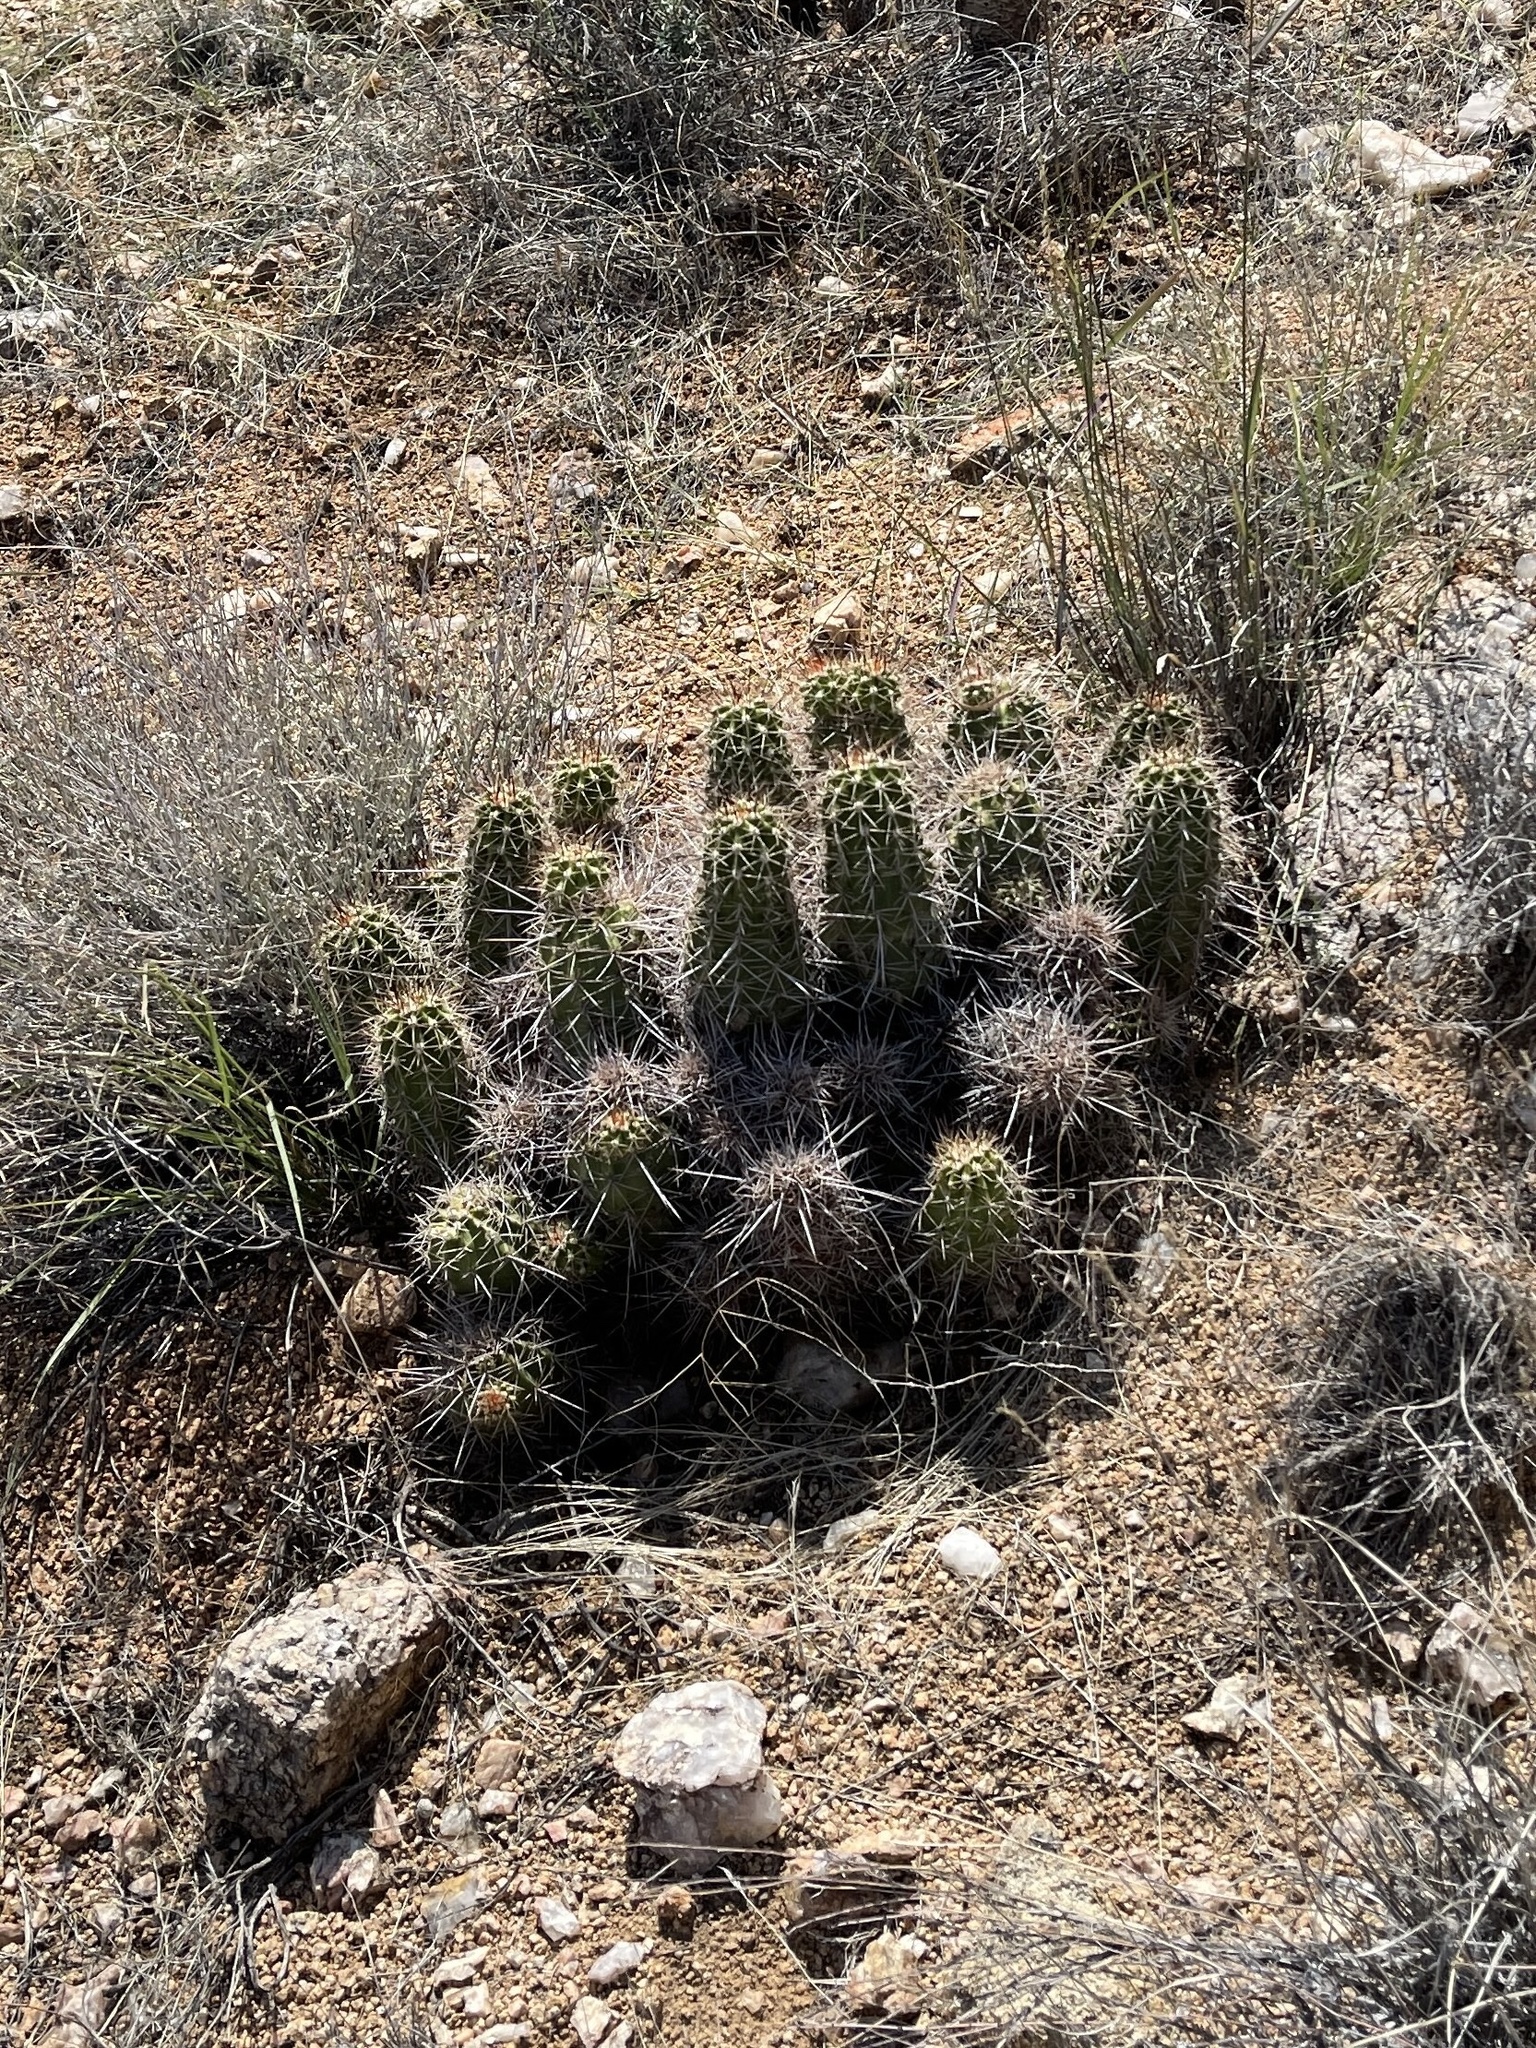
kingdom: Plantae
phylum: Tracheophyta
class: Magnoliopsida
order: Caryophyllales
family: Cactaceae
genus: Echinocereus
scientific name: Echinocereus bakeri
